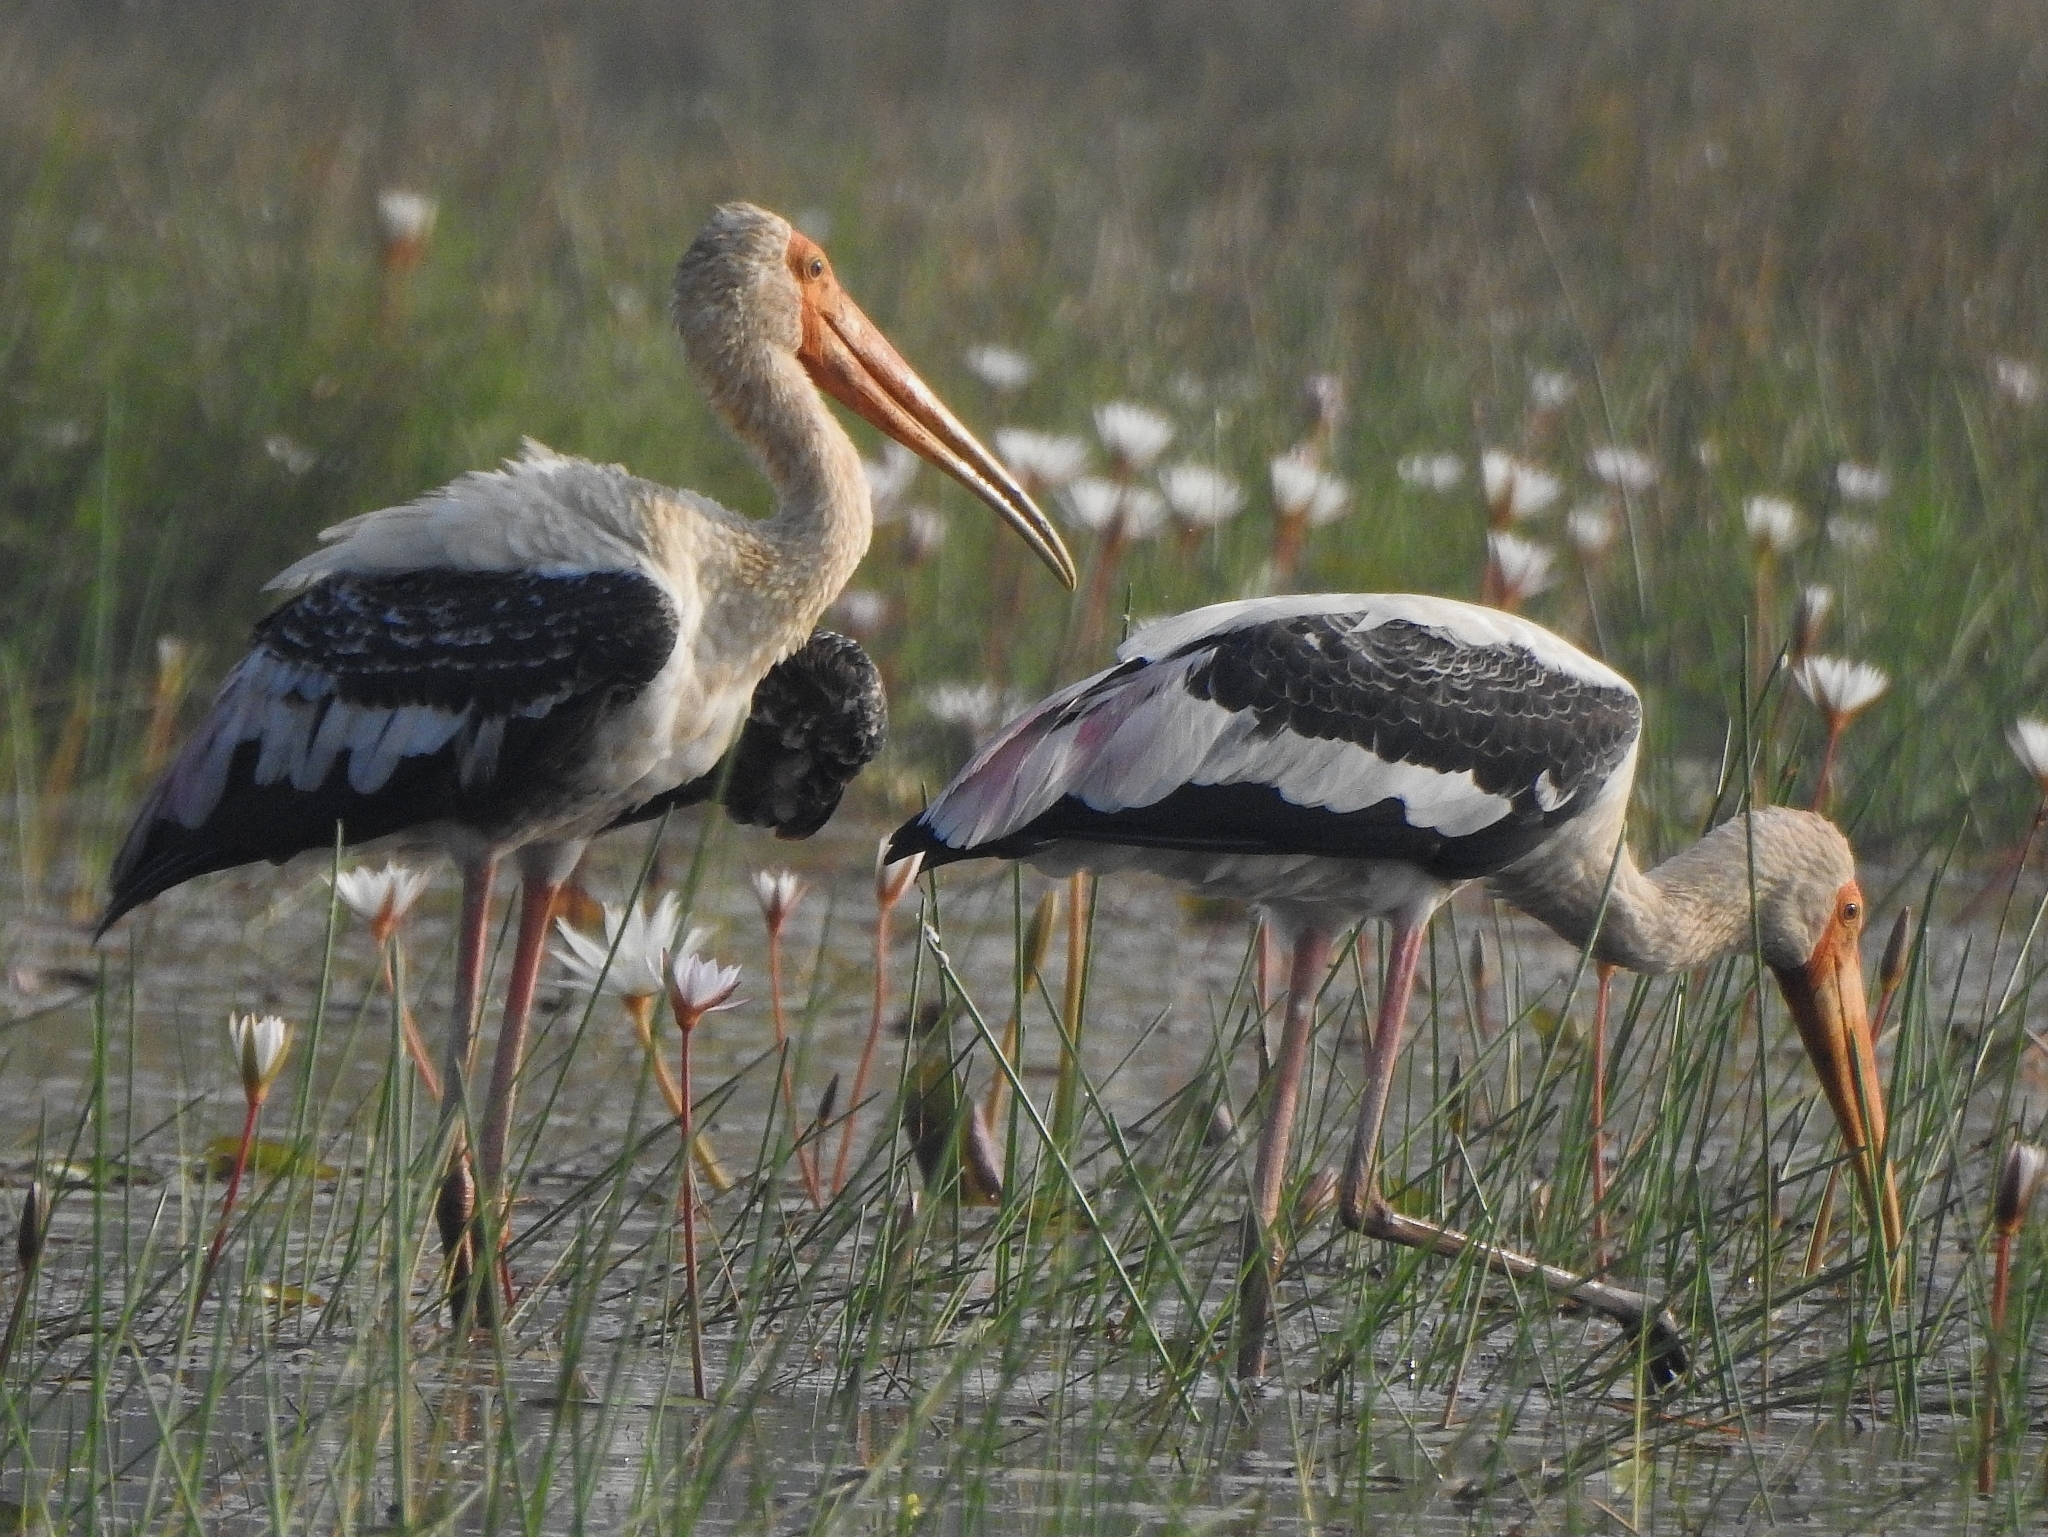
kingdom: Animalia
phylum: Chordata
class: Aves
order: Ciconiiformes
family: Ciconiidae
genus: Mycteria
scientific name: Mycteria leucocephala
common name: Painted stork
